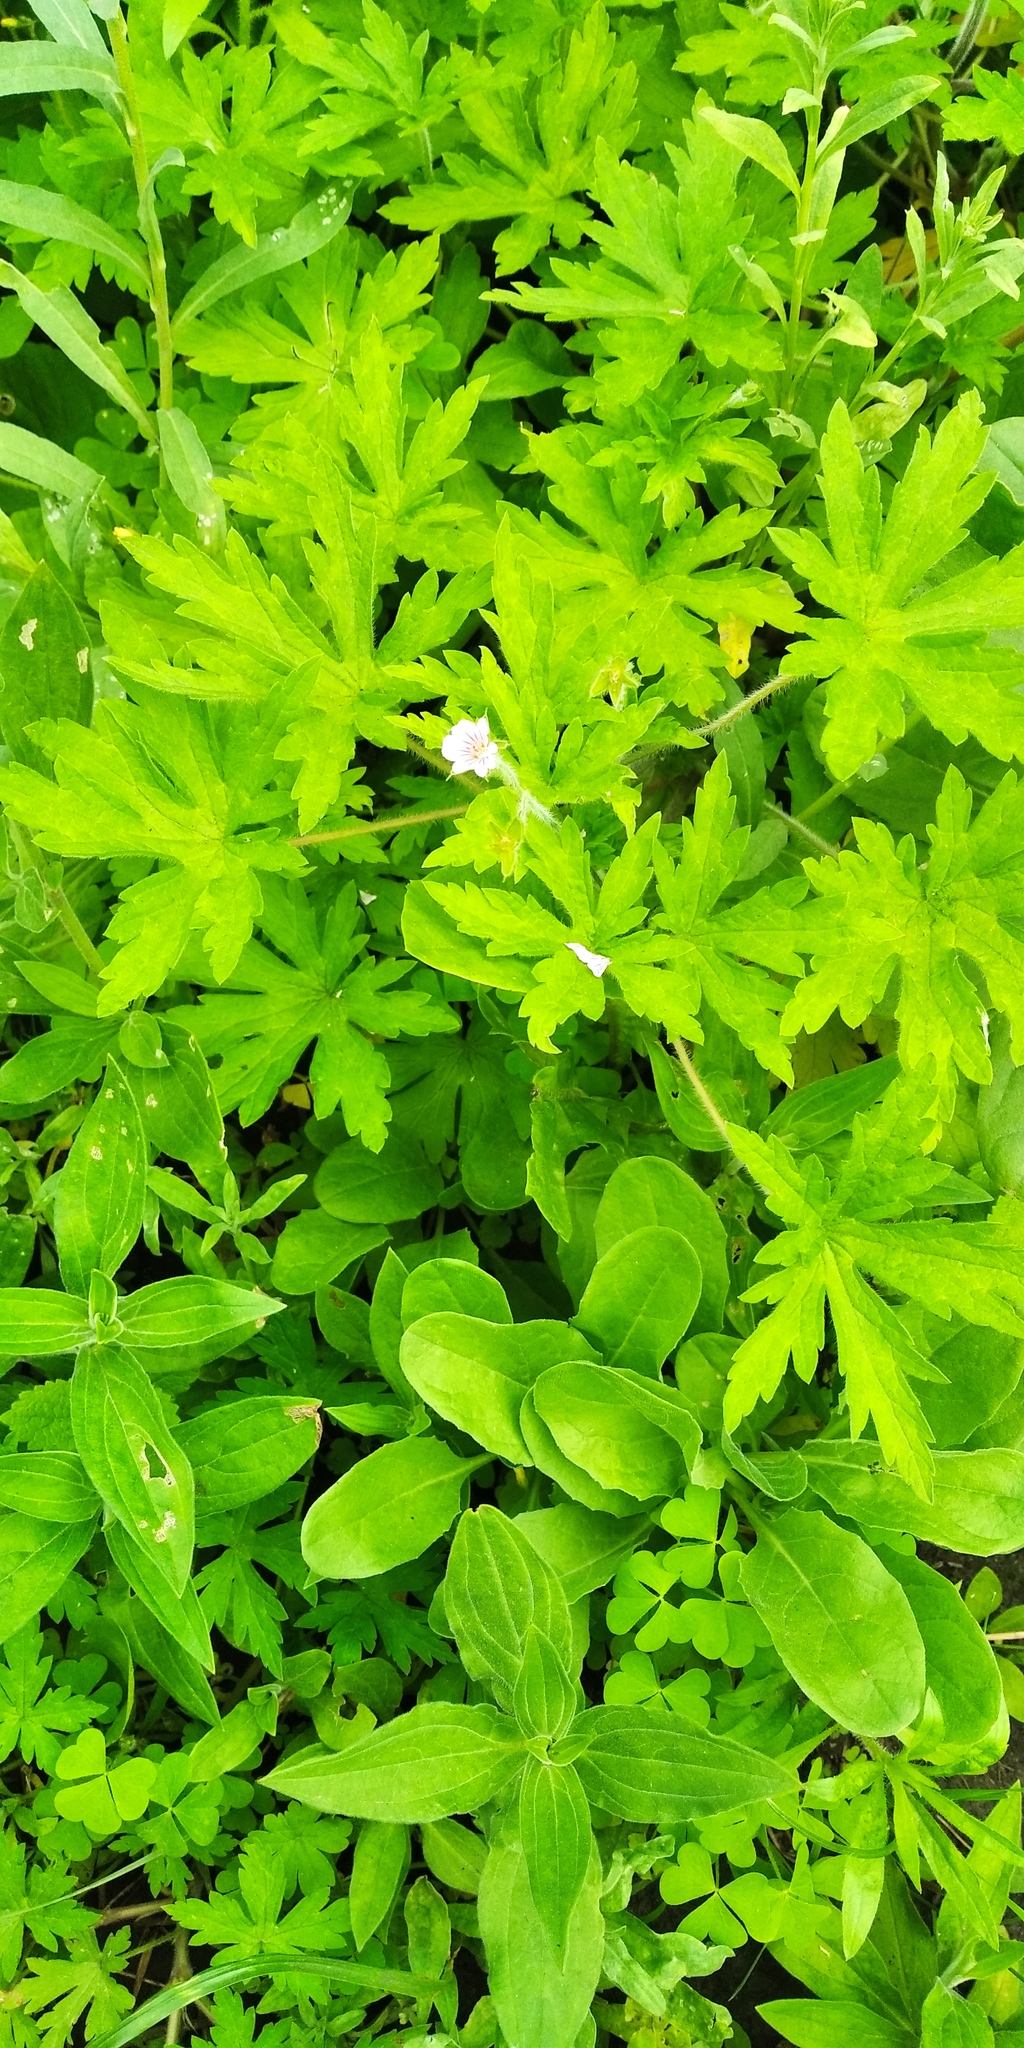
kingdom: Plantae
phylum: Tracheophyta
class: Magnoliopsida
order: Geraniales
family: Geraniaceae
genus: Geranium
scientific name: Geranium sibiricum
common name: Siberian crane's-bill
